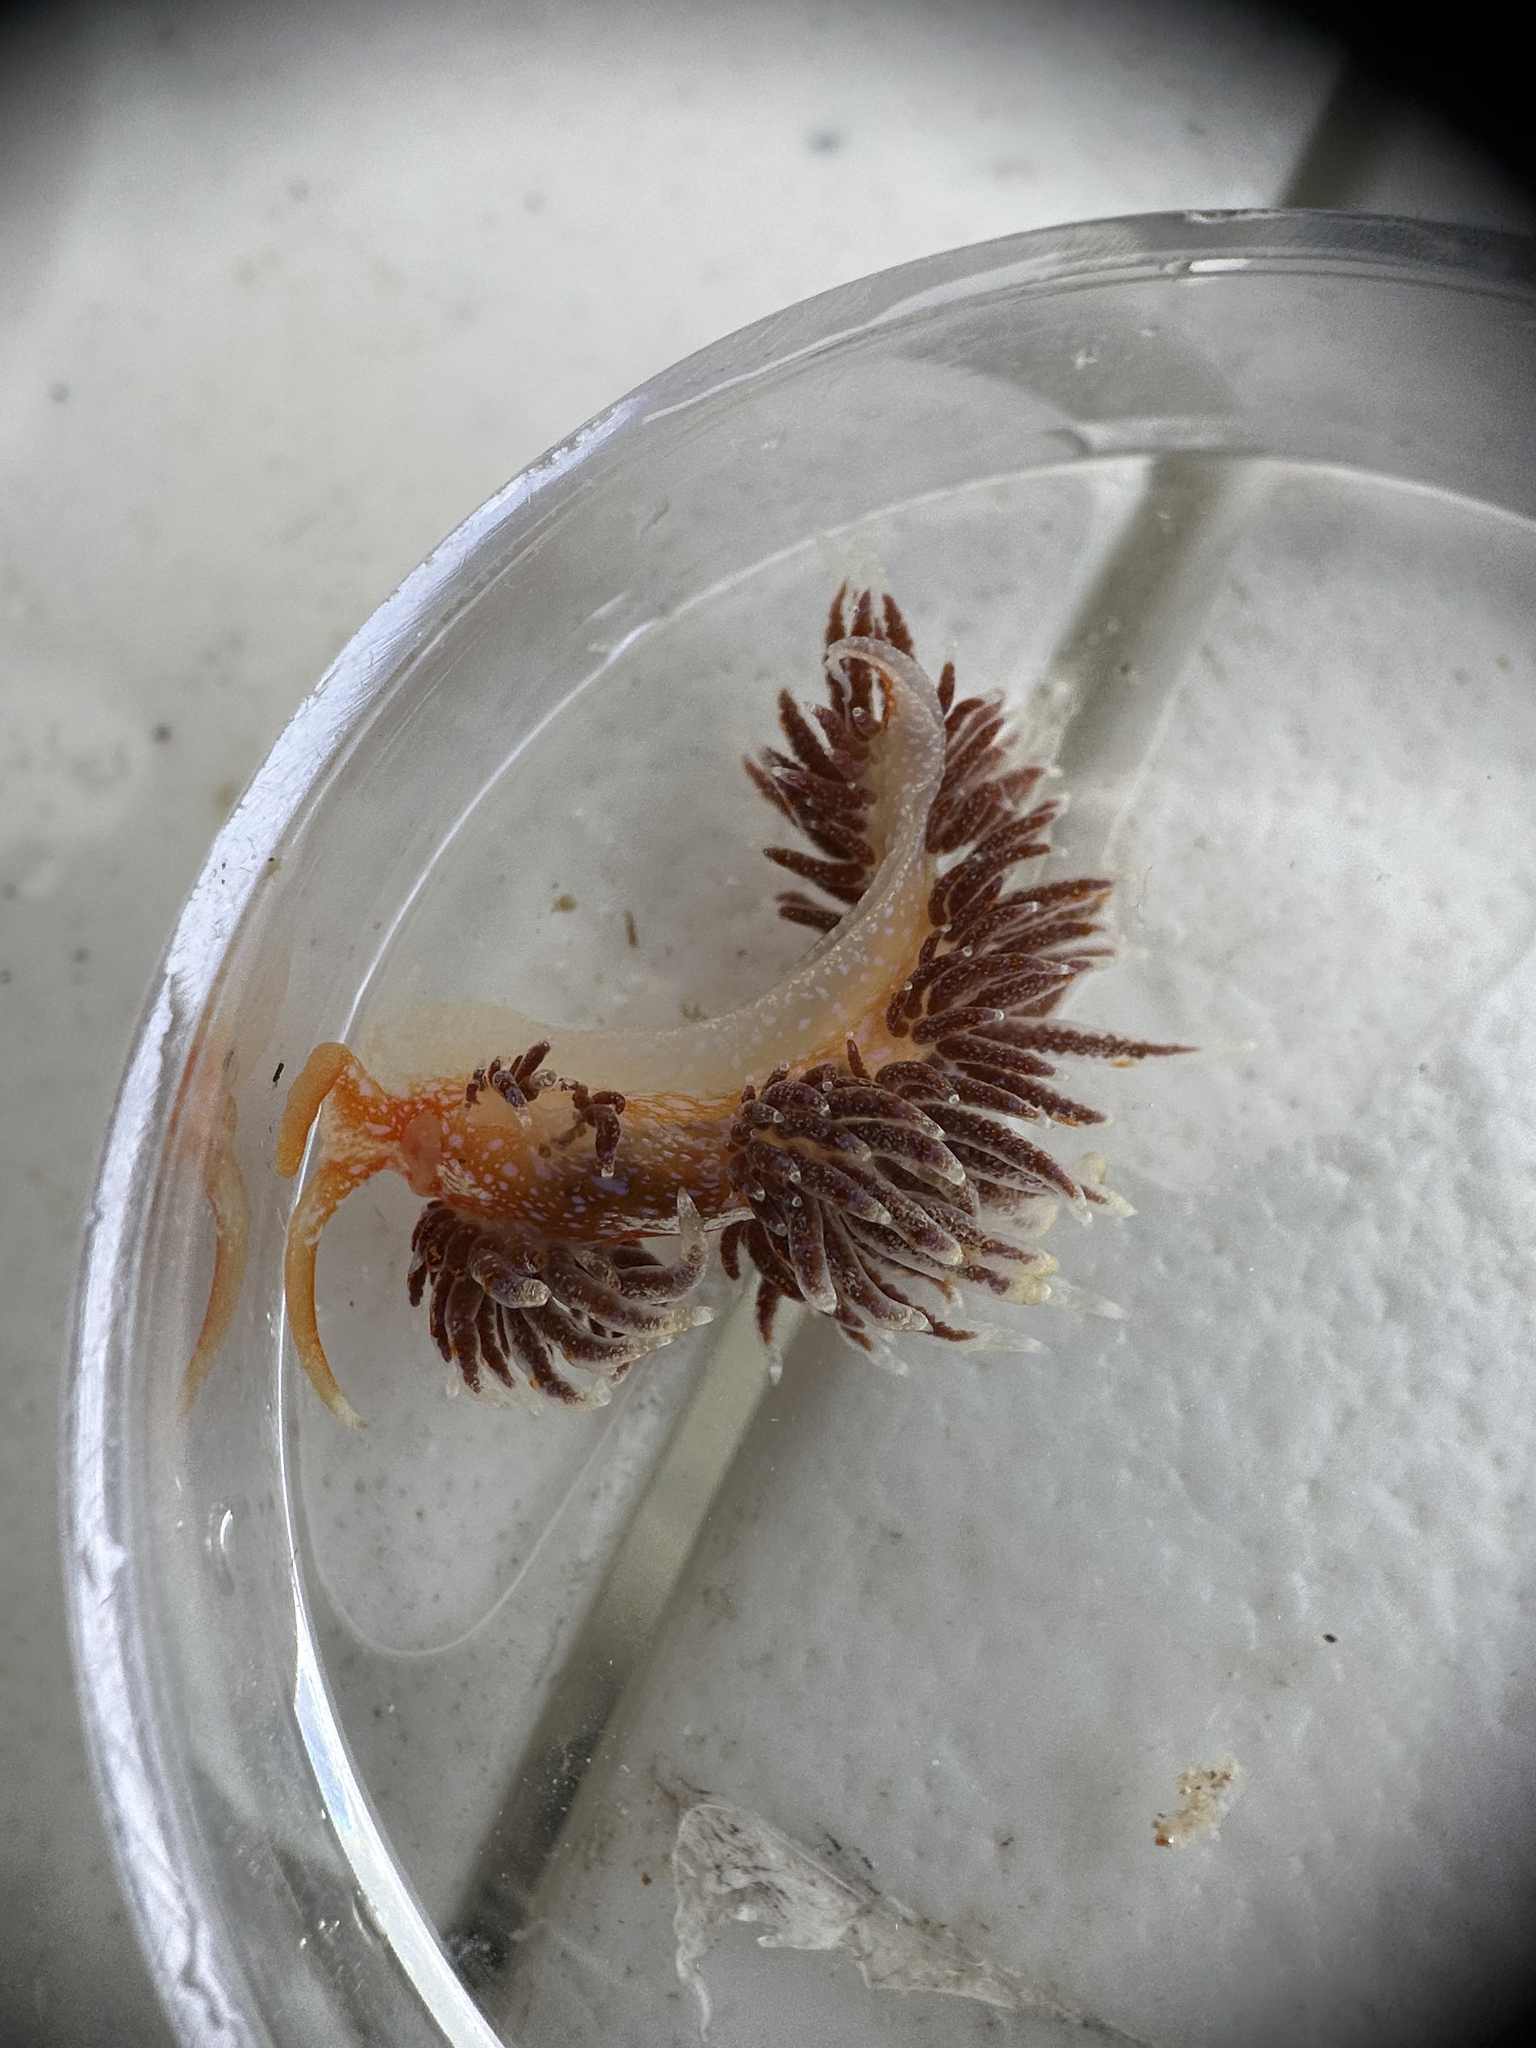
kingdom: Animalia
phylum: Mollusca
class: Gastropoda
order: Nudibranchia
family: Facelinidae
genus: Austraeolis
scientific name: Austraeolis ornata
